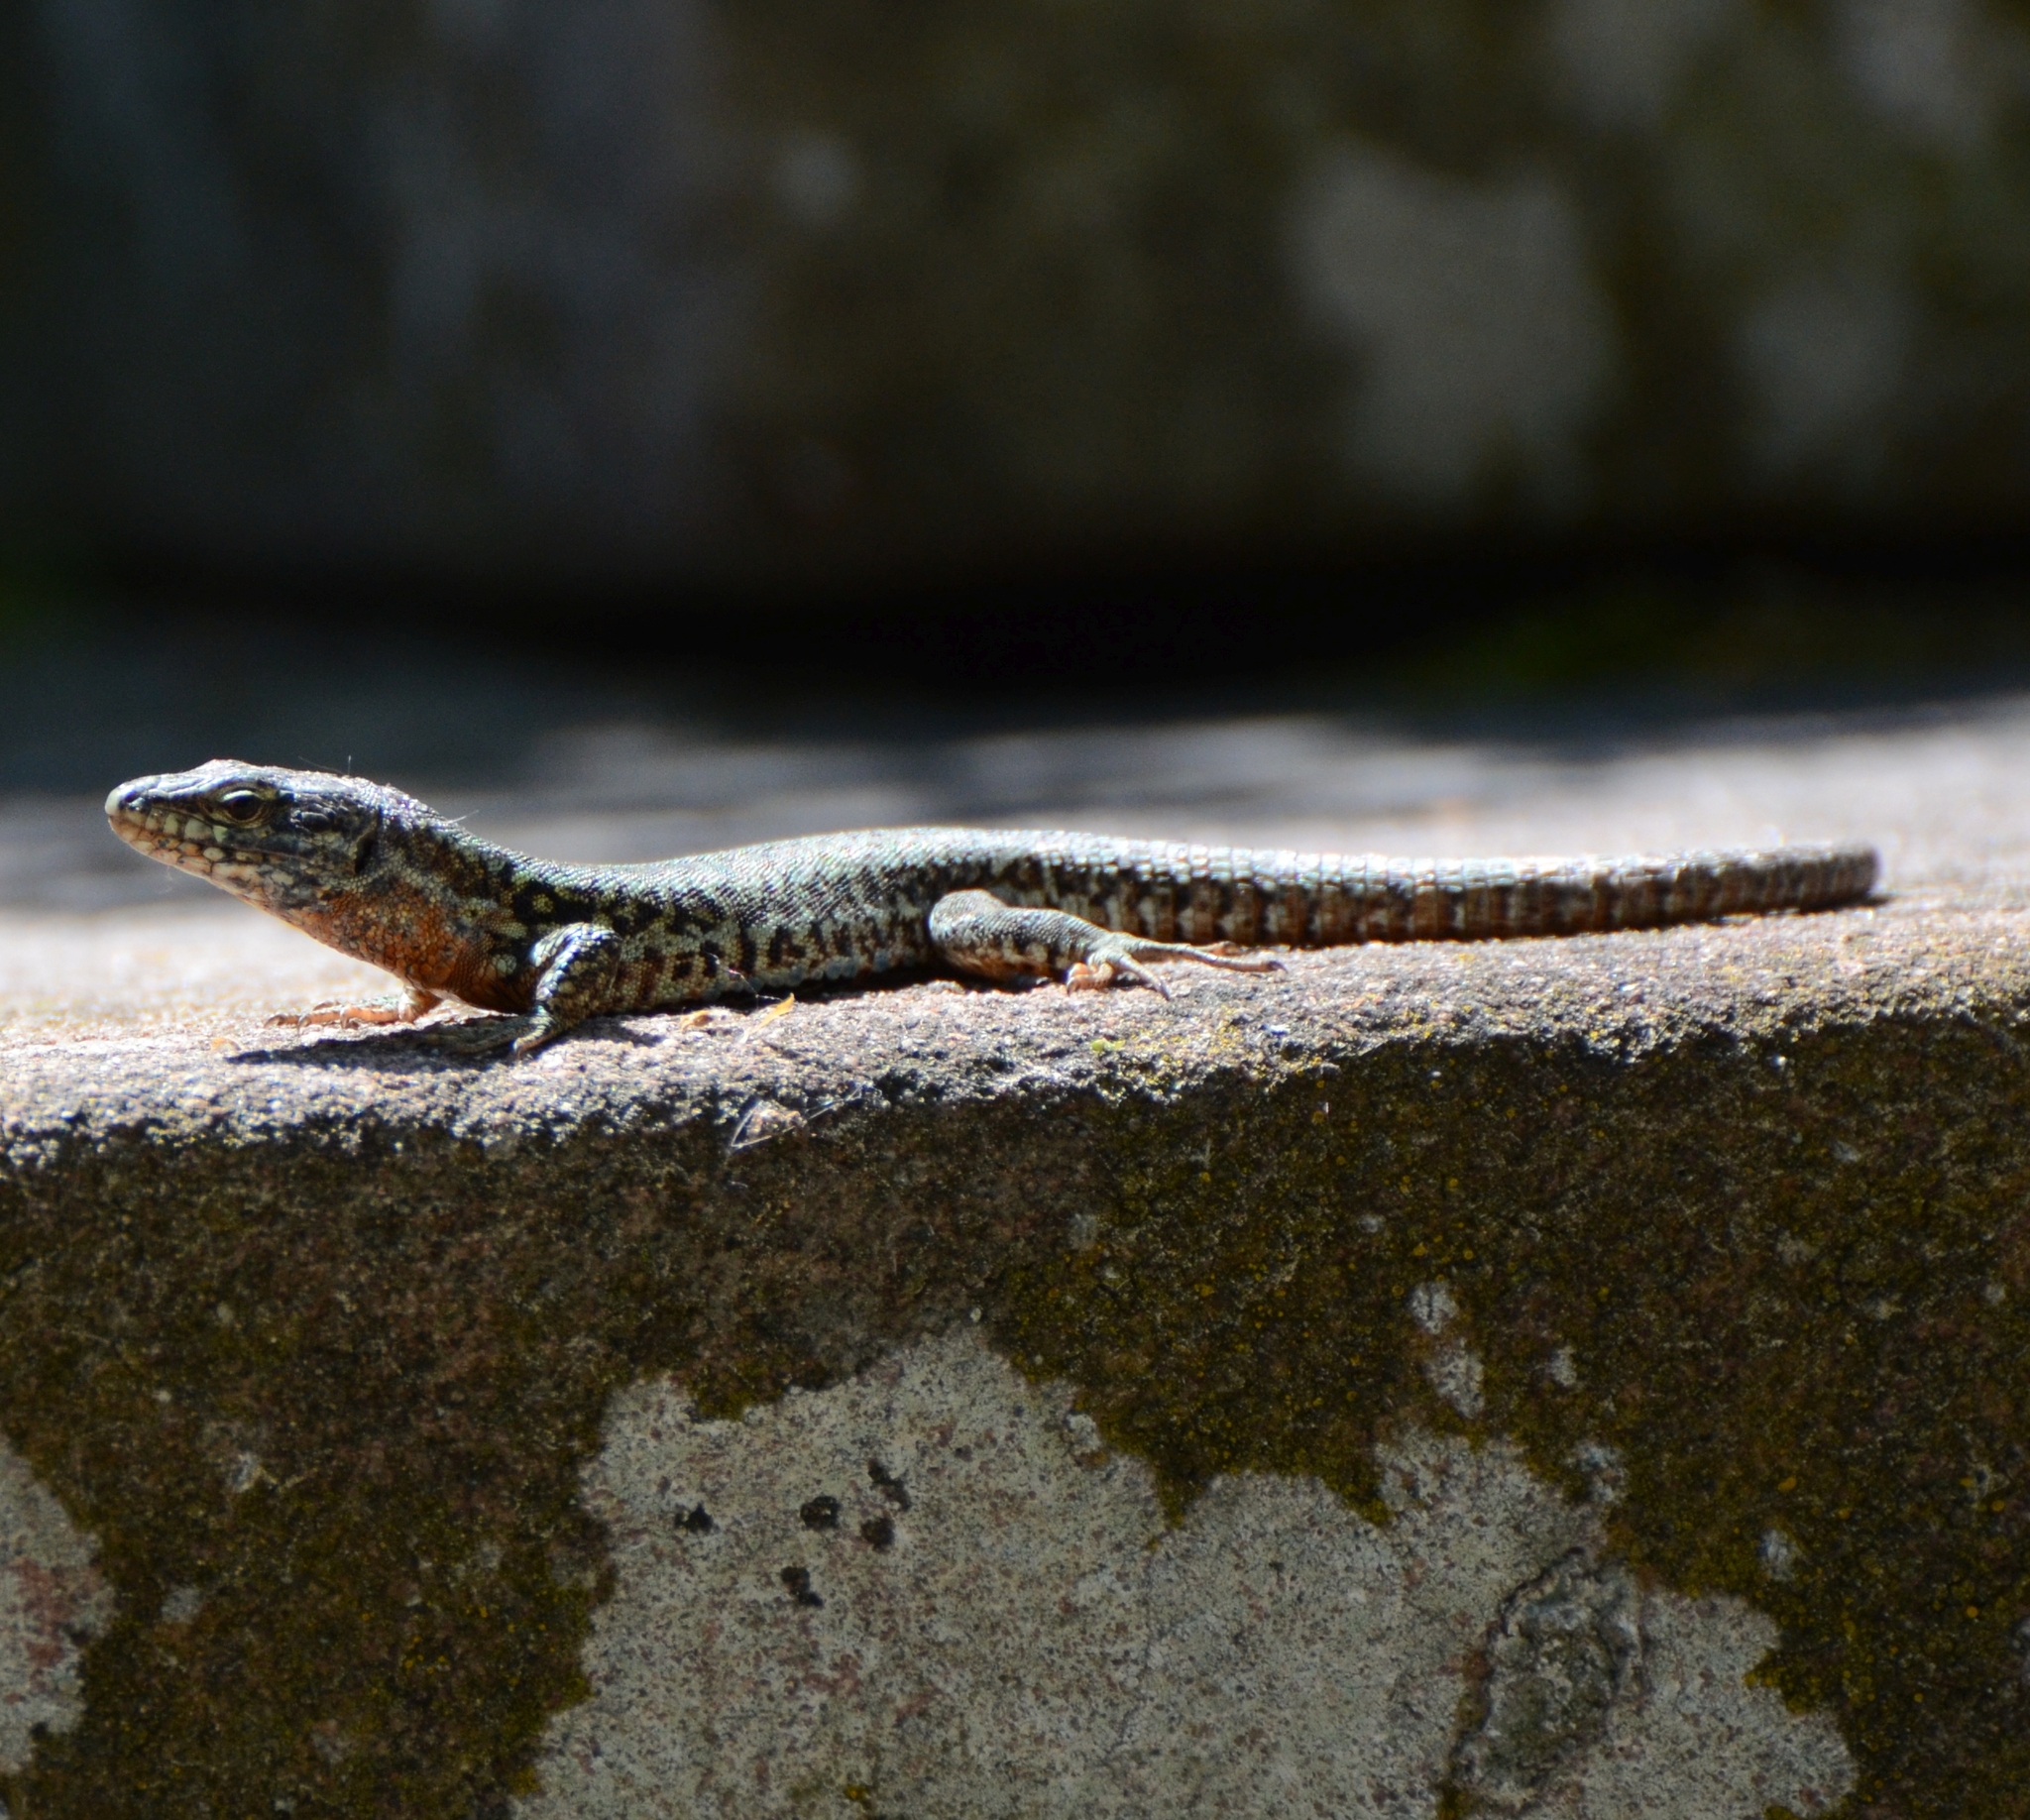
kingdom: Animalia
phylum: Chordata
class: Squamata
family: Lacertidae
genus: Podarcis
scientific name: Podarcis muralis
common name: Common wall lizard
